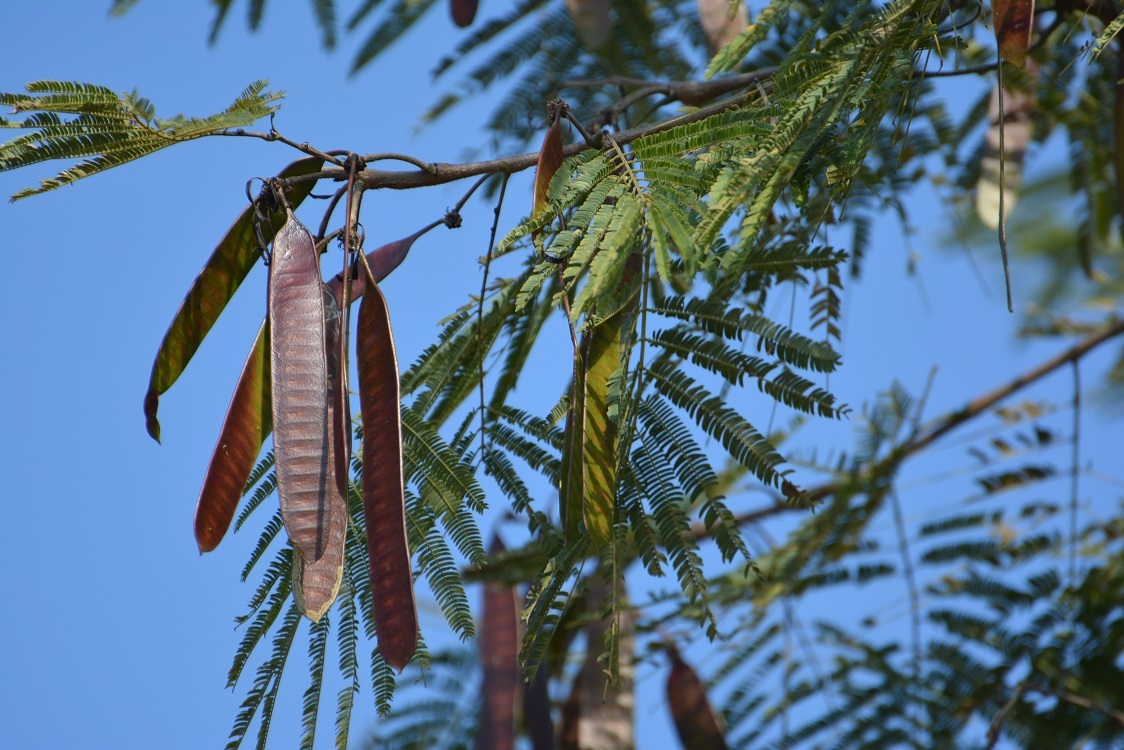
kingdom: Plantae
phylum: Tracheophyta
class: Magnoliopsida
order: Fabales
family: Fabaceae
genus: Leucaena
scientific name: Leucaena diversifolia
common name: Red leucaena
